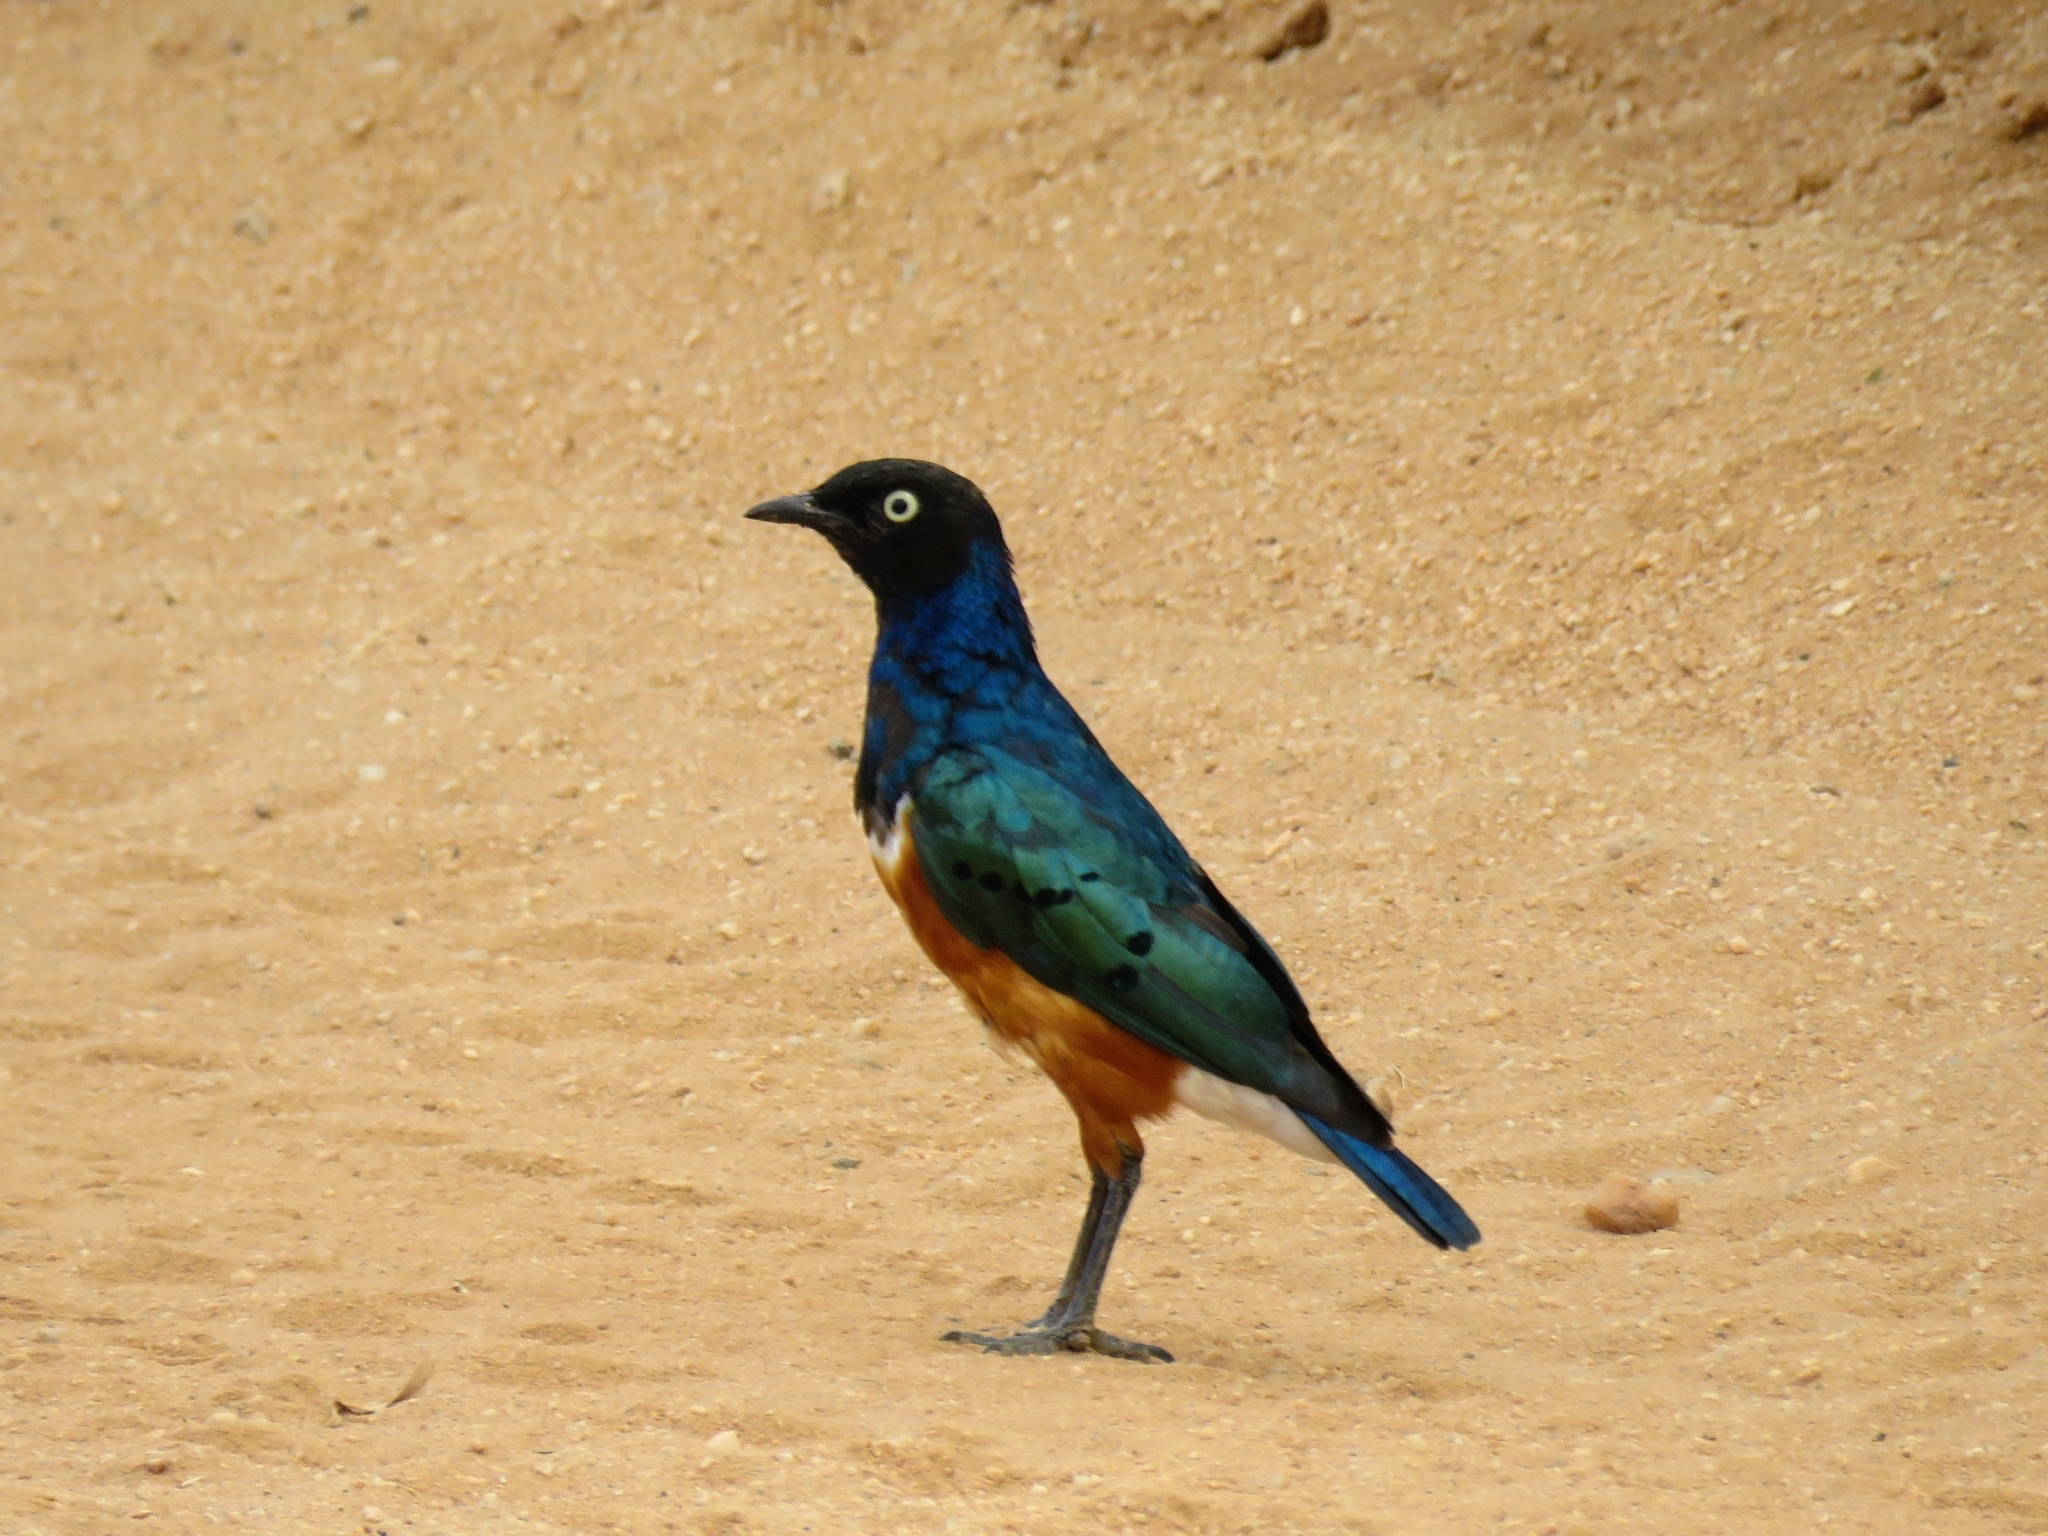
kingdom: Animalia
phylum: Chordata
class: Aves
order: Passeriformes
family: Sturnidae
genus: Lamprotornis
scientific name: Lamprotornis superbus
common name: Superb starling
